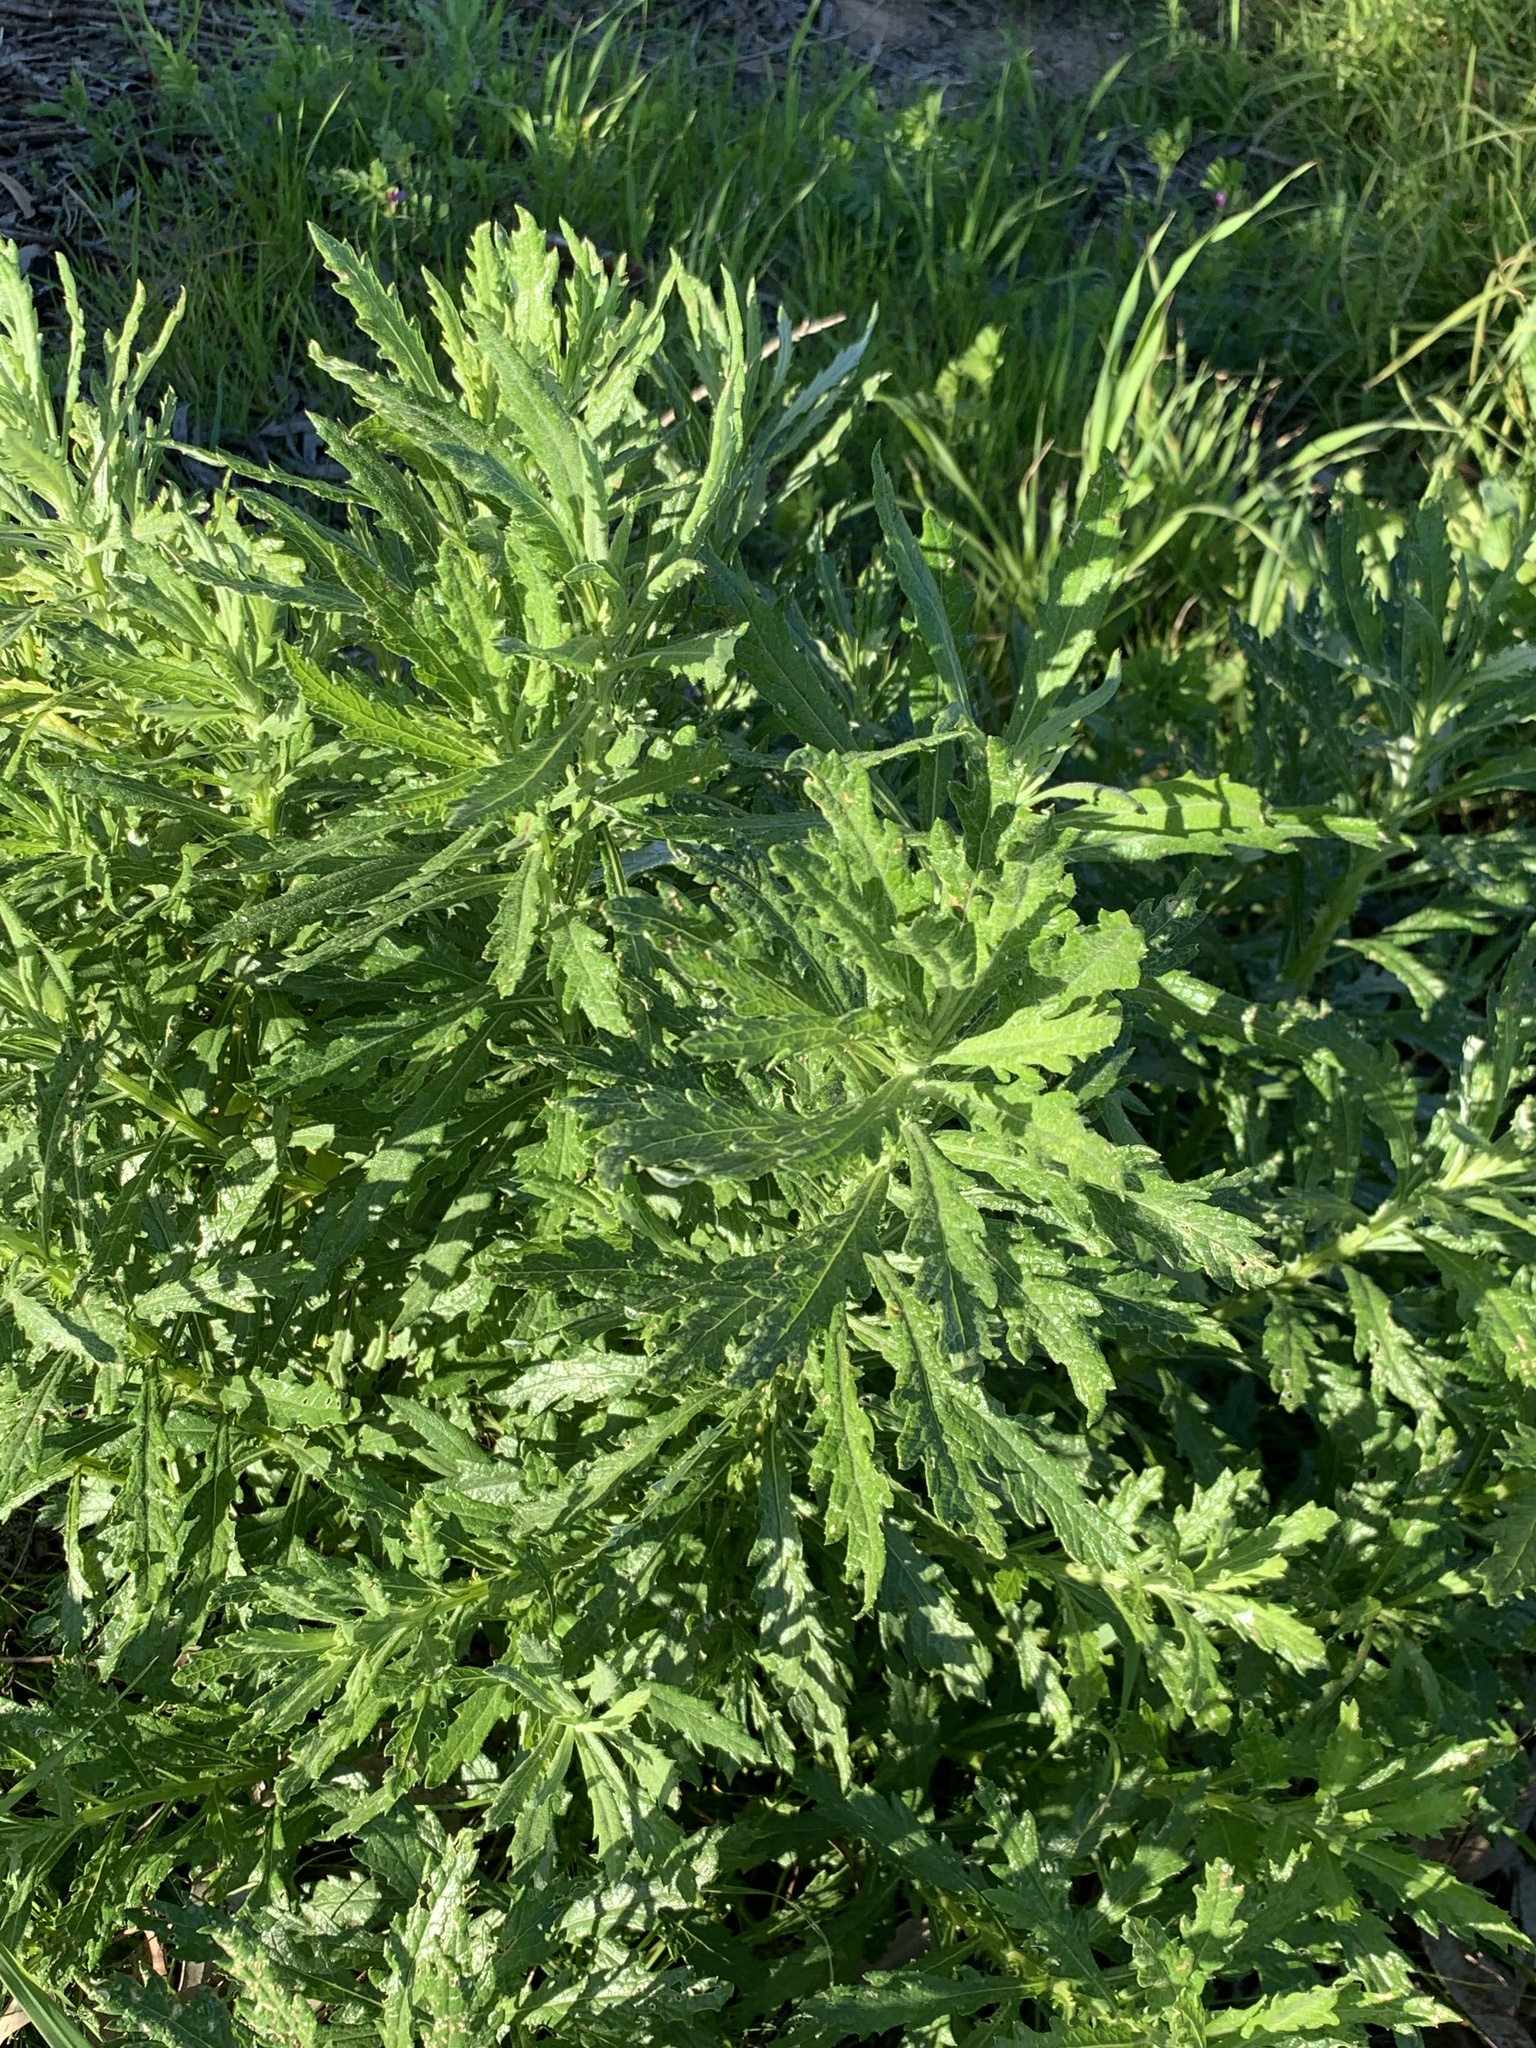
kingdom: Plantae
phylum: Tracheophyta
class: Magnoliopsida
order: Asterales
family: Asteraceae
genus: Senecio
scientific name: Senecio pterophorus
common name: Shoddy ragwort
